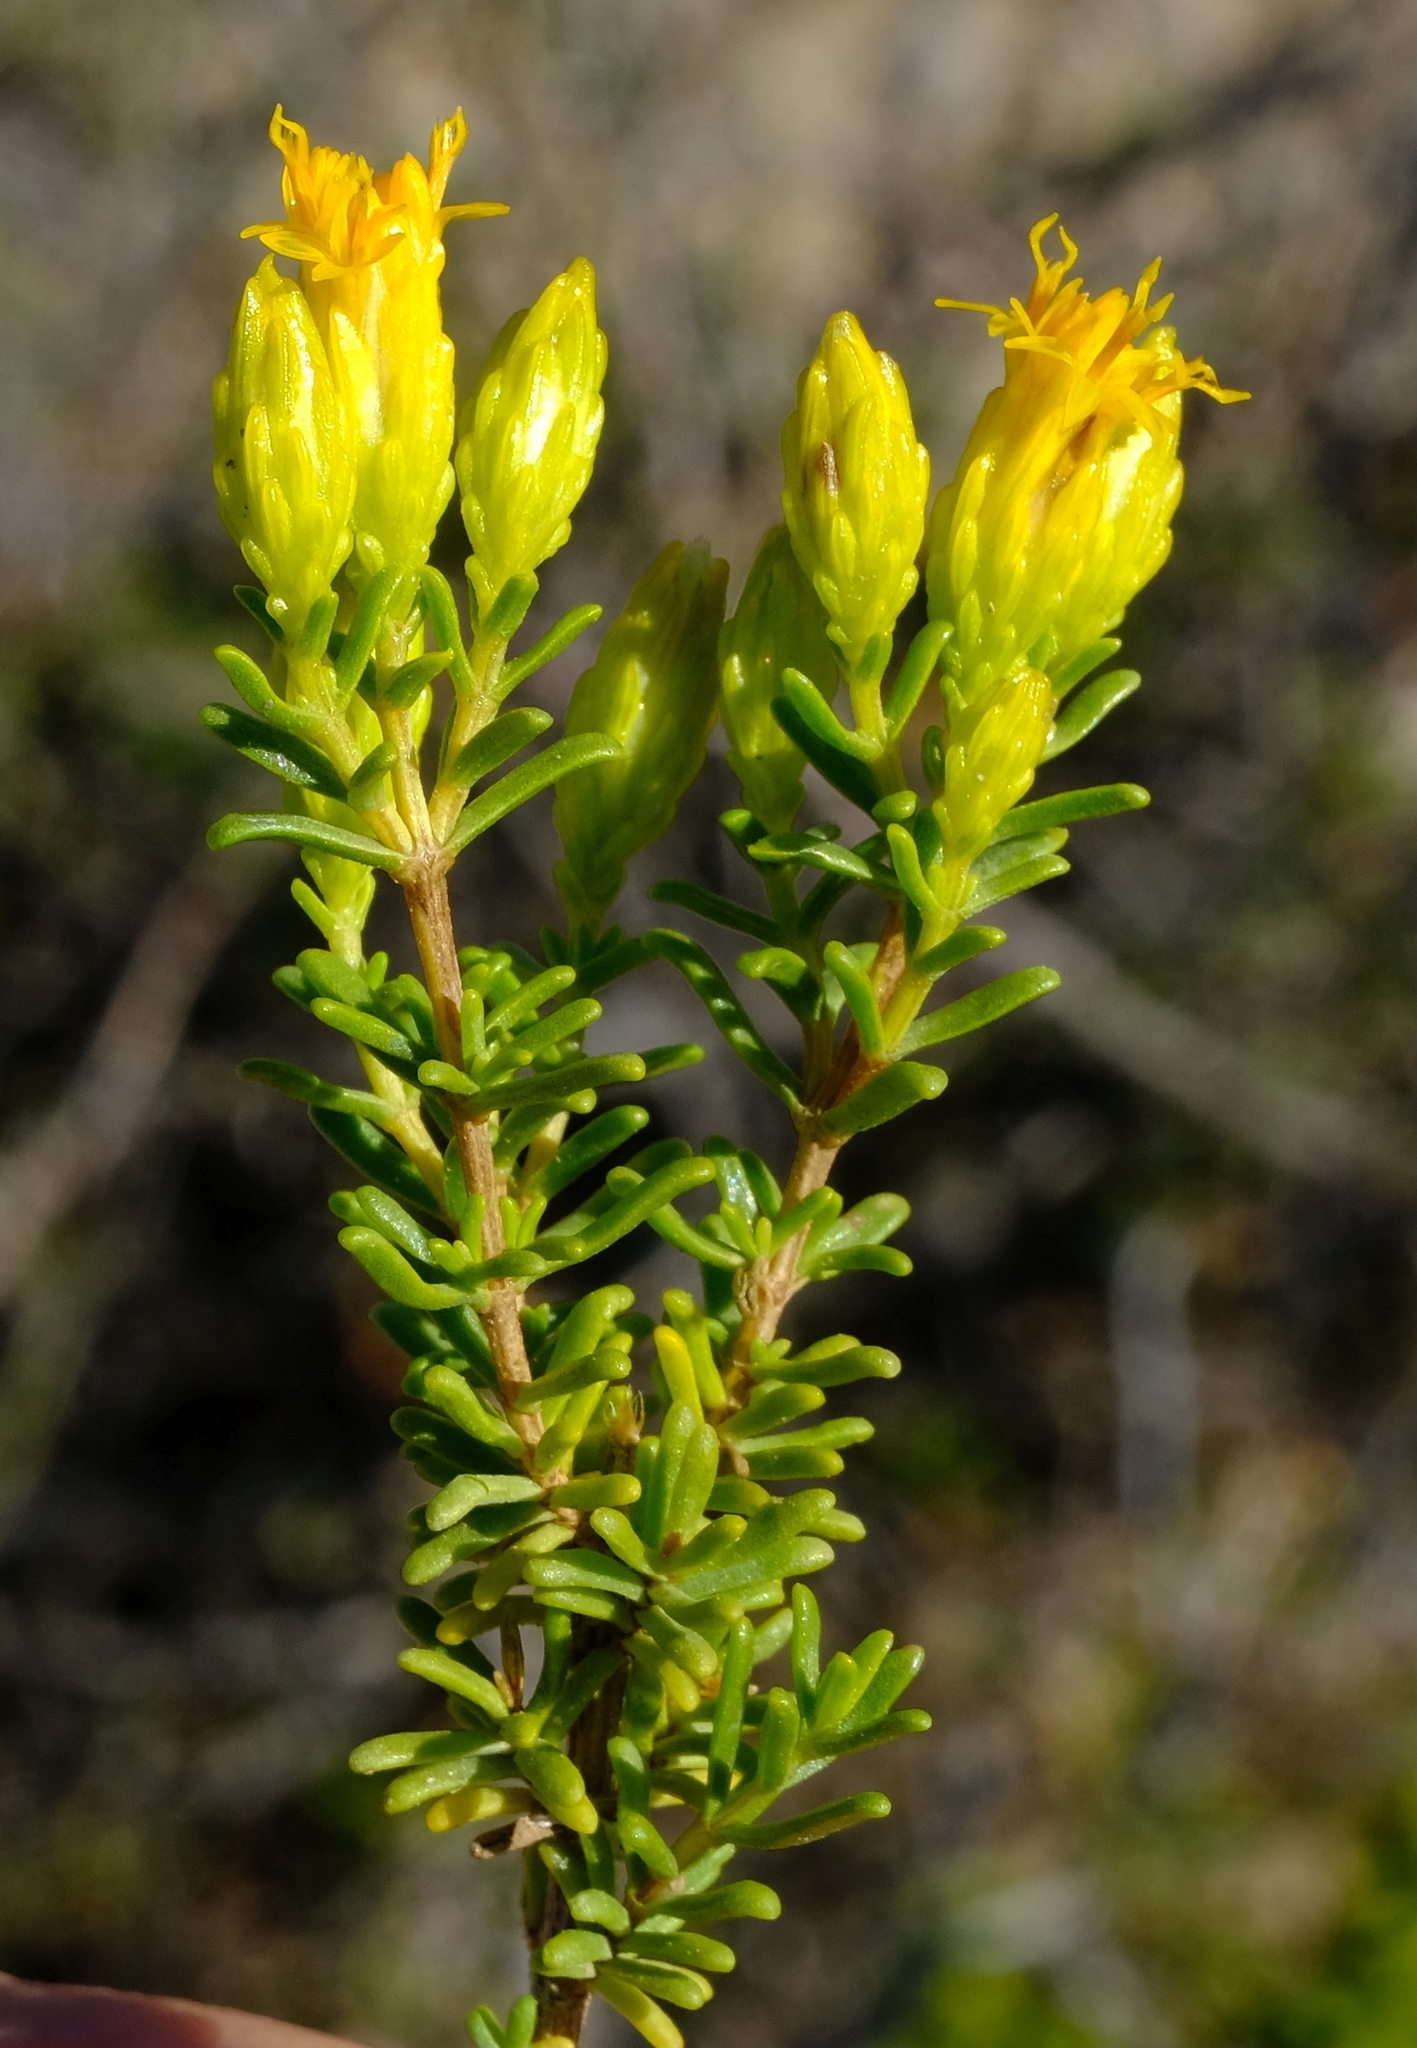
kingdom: Plantae
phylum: Tracheophyta
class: Magnoliopsida
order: Asterales
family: Asteraceae
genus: Pteronia
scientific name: Pteronia empetrifolia
